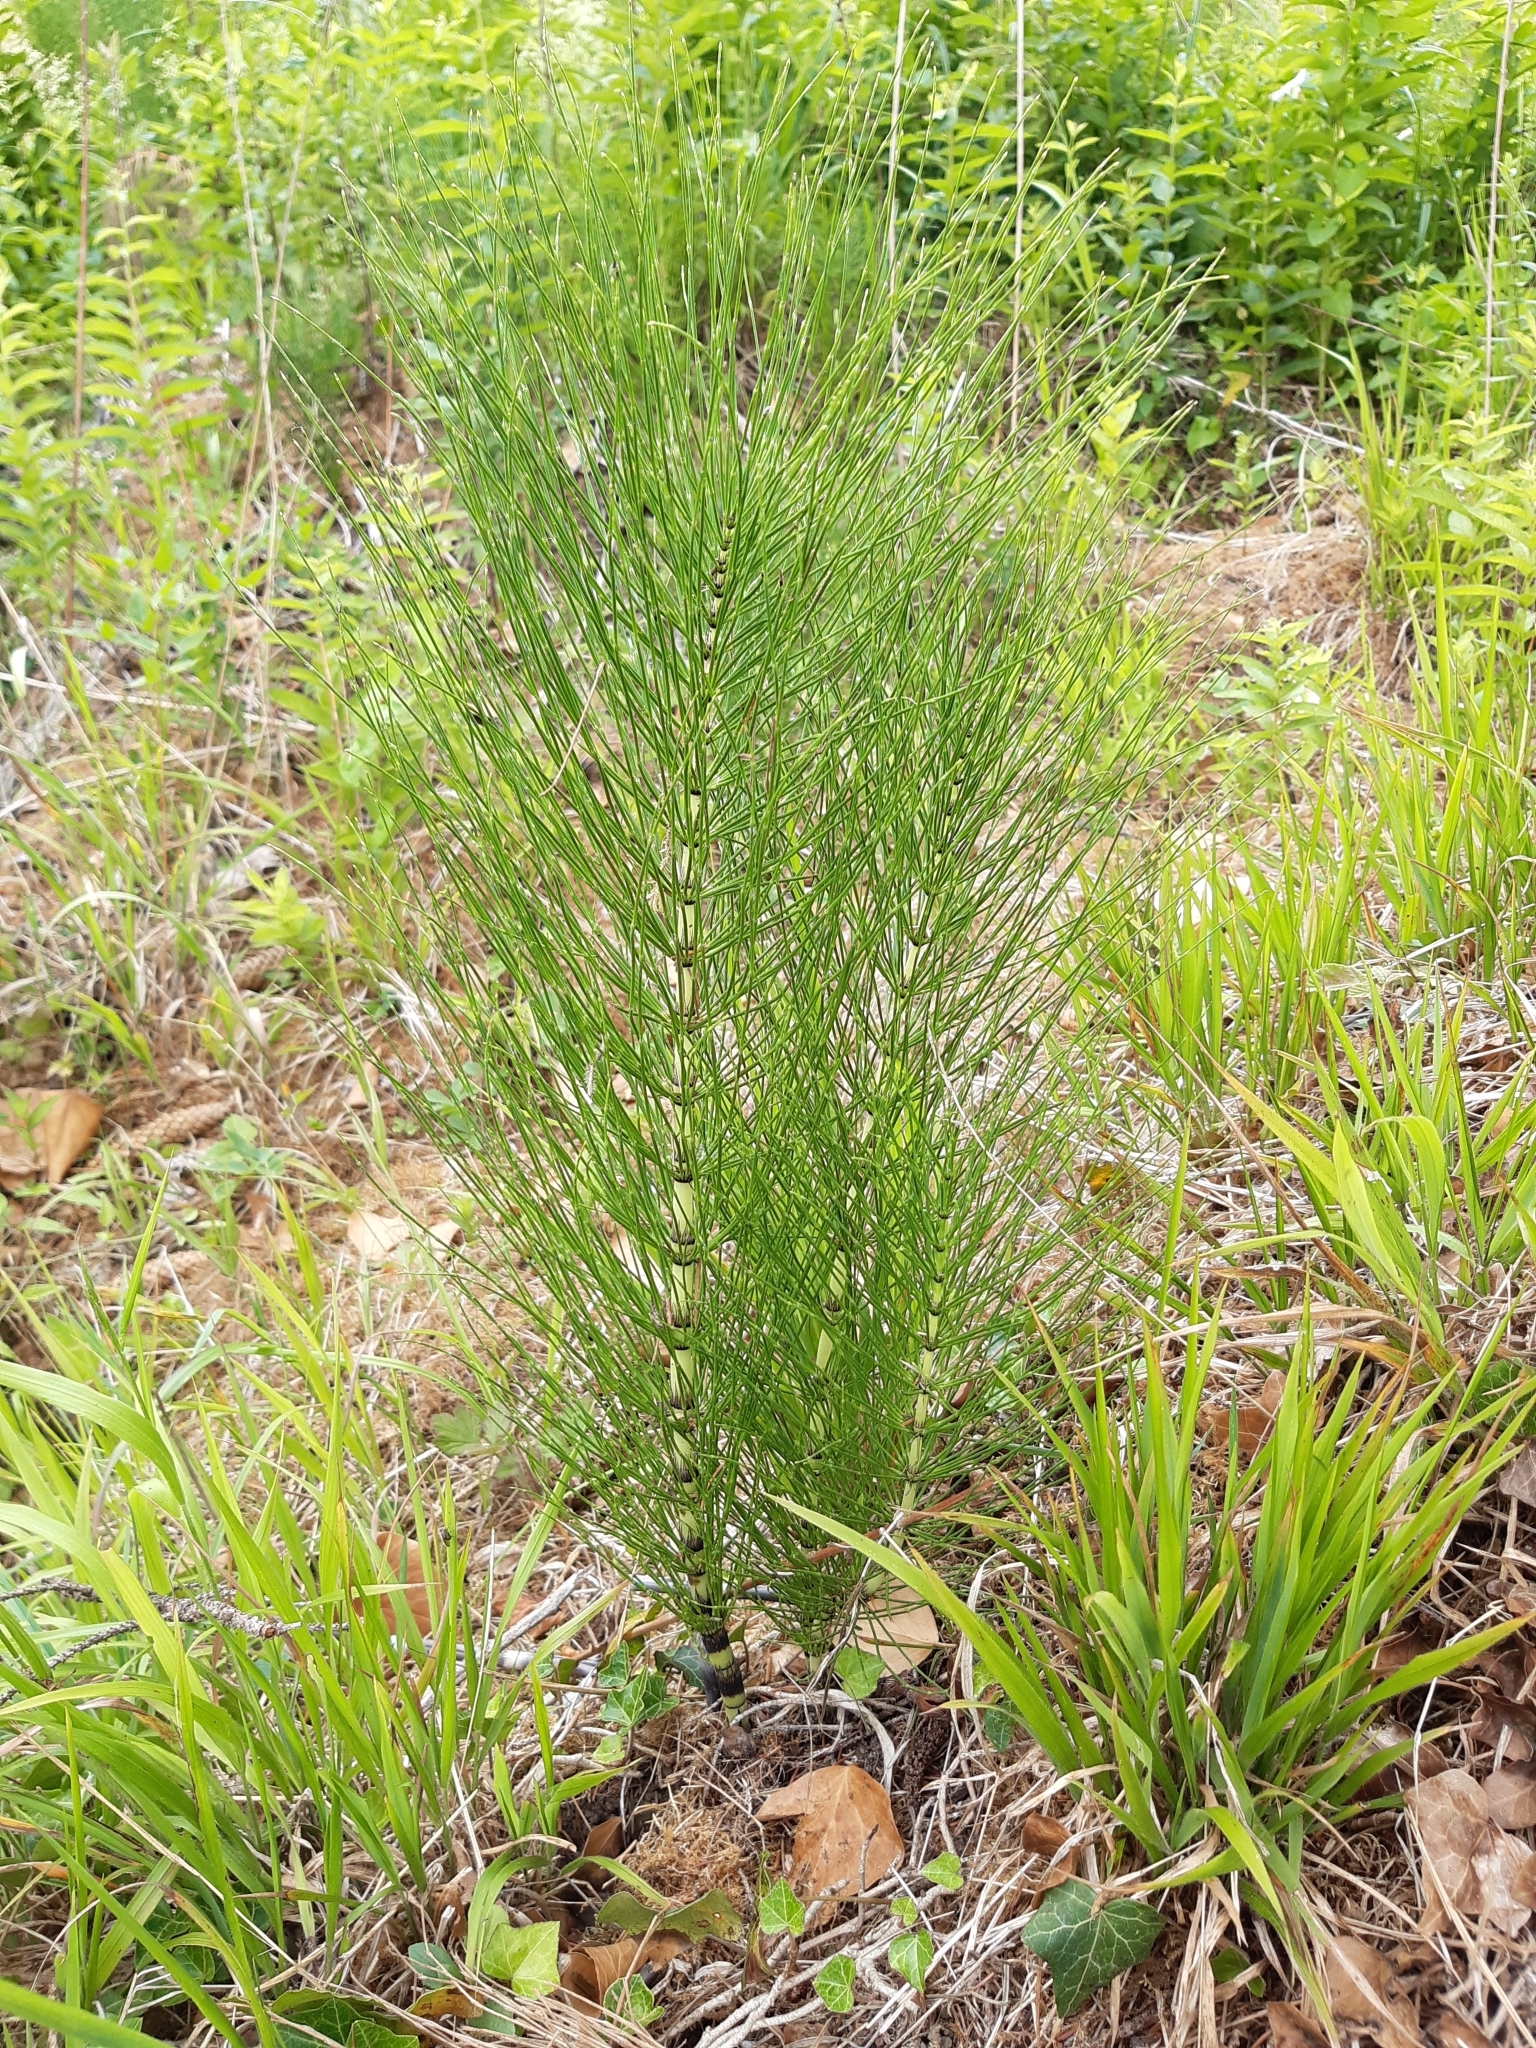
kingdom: Plantae
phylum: Tracheophyta
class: Polypodiopsida
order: Equisetales
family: Equisetaceae
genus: Equisetum
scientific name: Equisetum telmateia
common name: Great horsetail
